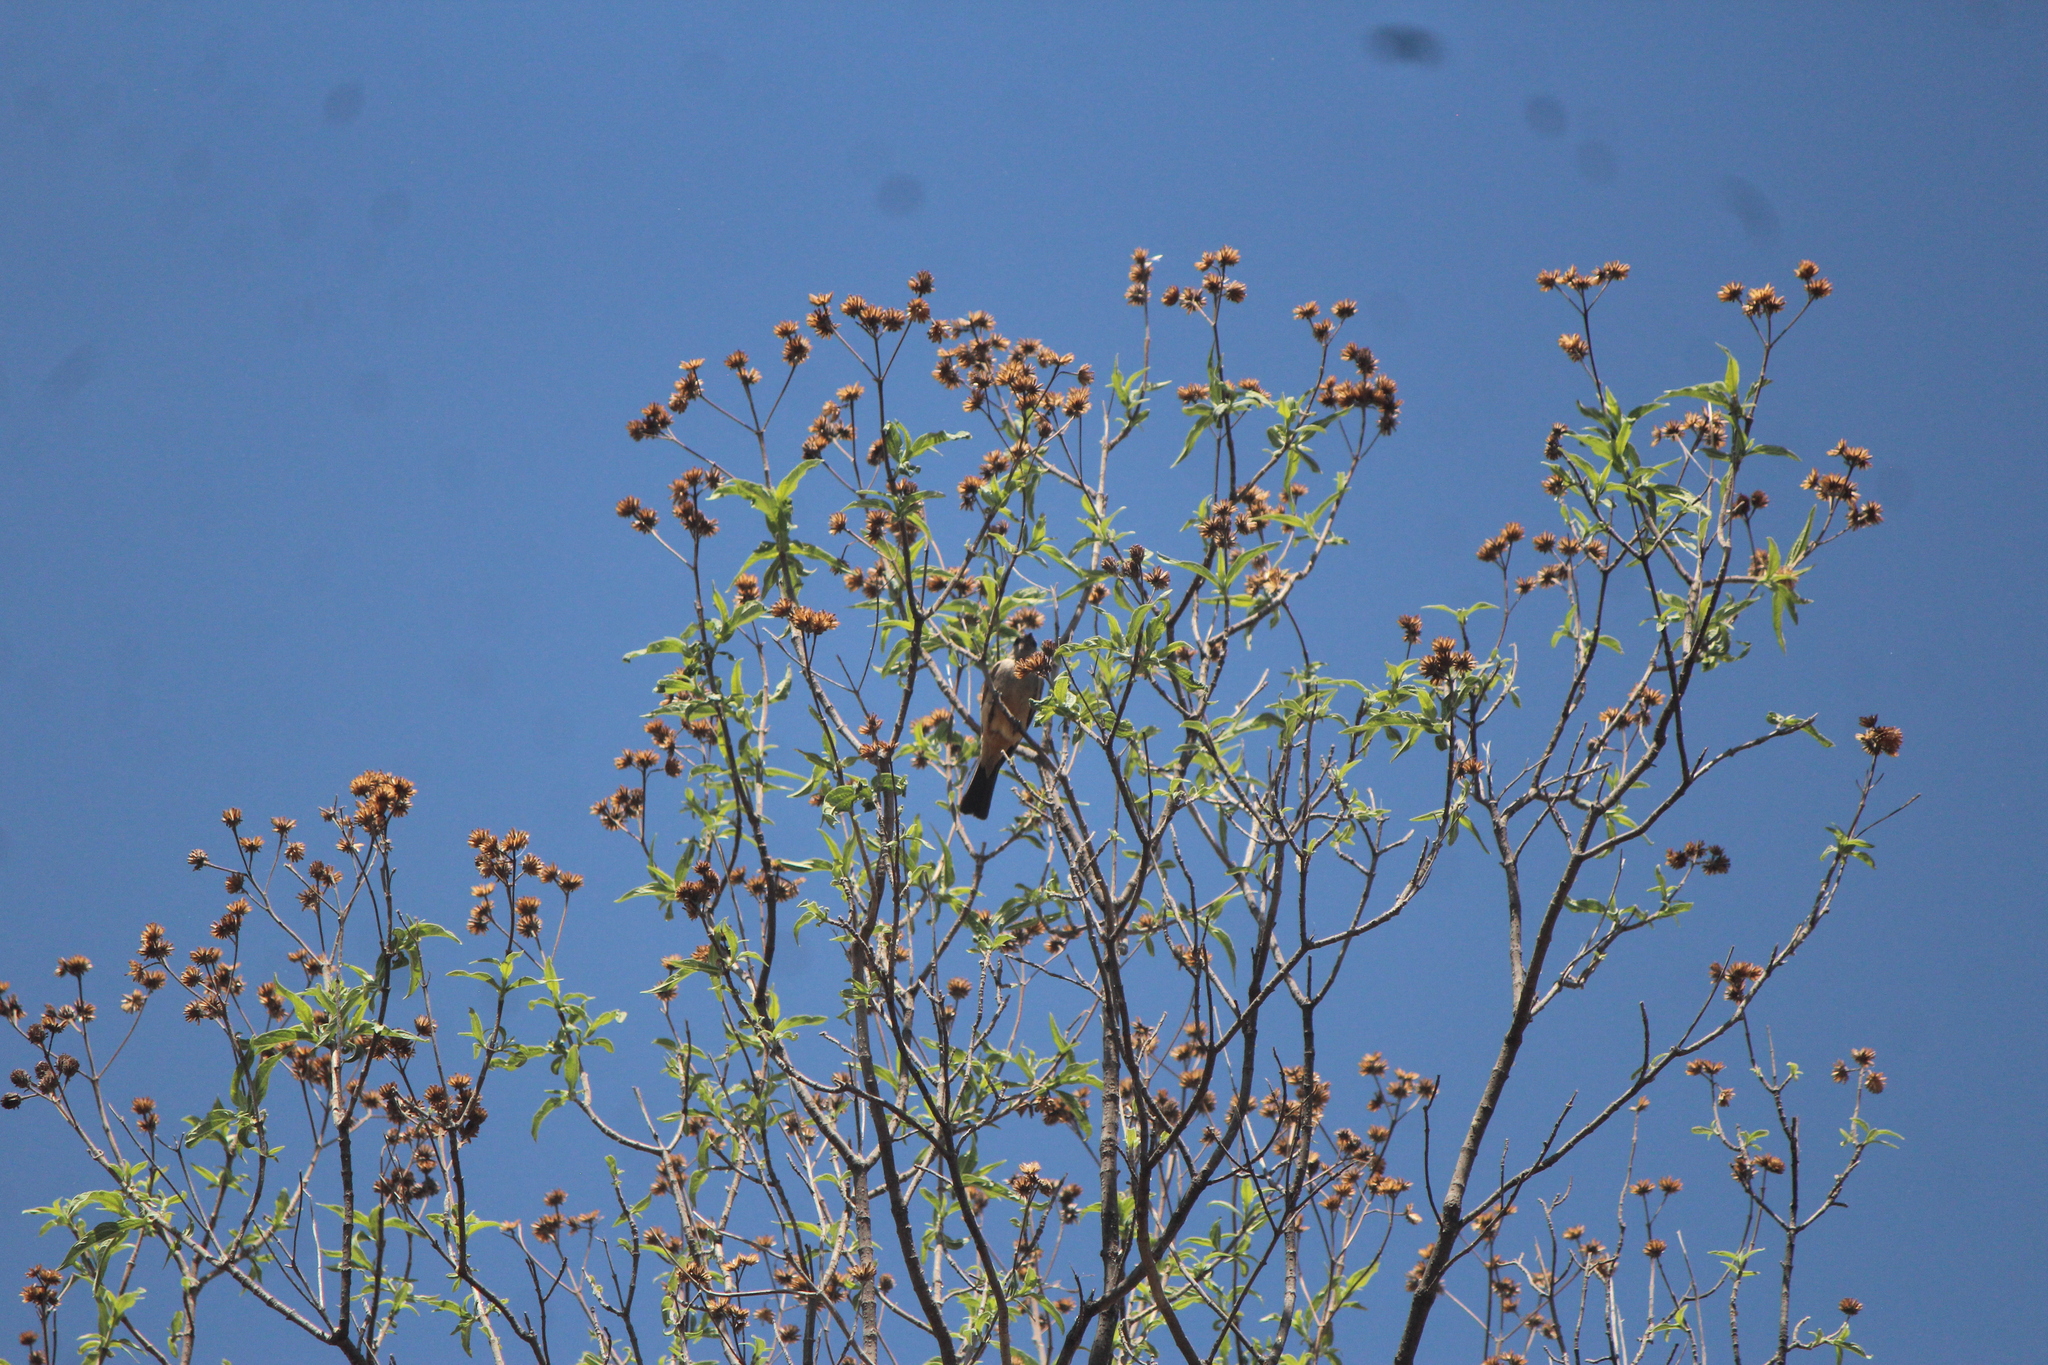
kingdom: Animalia
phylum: Chordata
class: Aves
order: Passeriformes
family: Tyrannidae
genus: Sayornis
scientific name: Sayornis saya
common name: Say's phoebe
